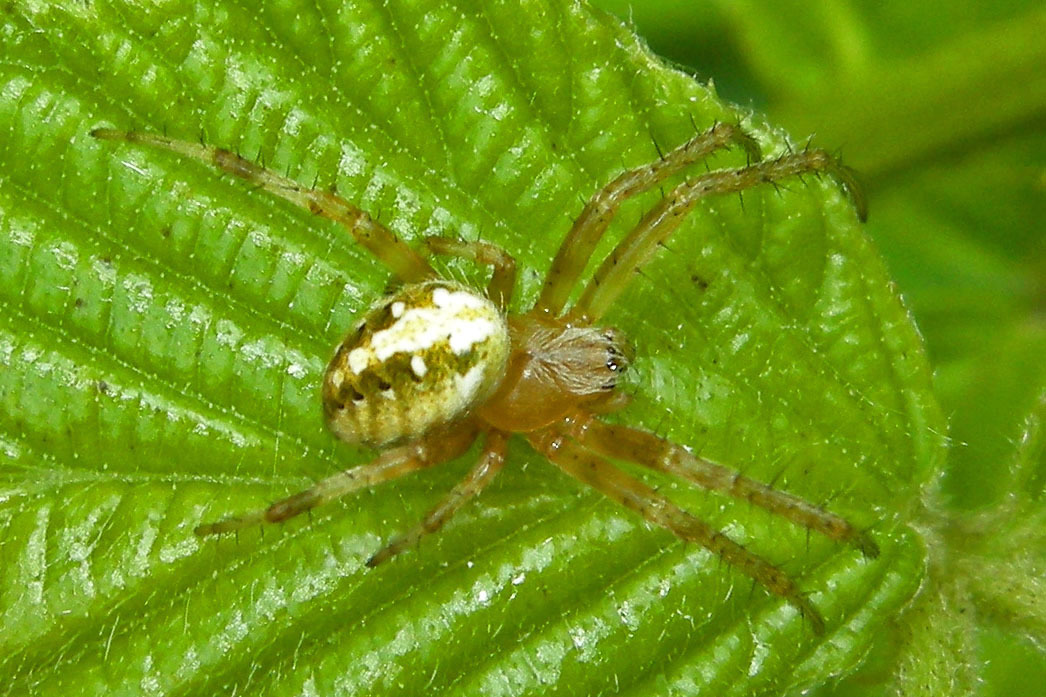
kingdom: Animalia
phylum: Arthropoda
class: Arachnida
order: Araneae
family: Araneidae
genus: Neoscona
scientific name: Neoscona arabesca
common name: Orb weavers
